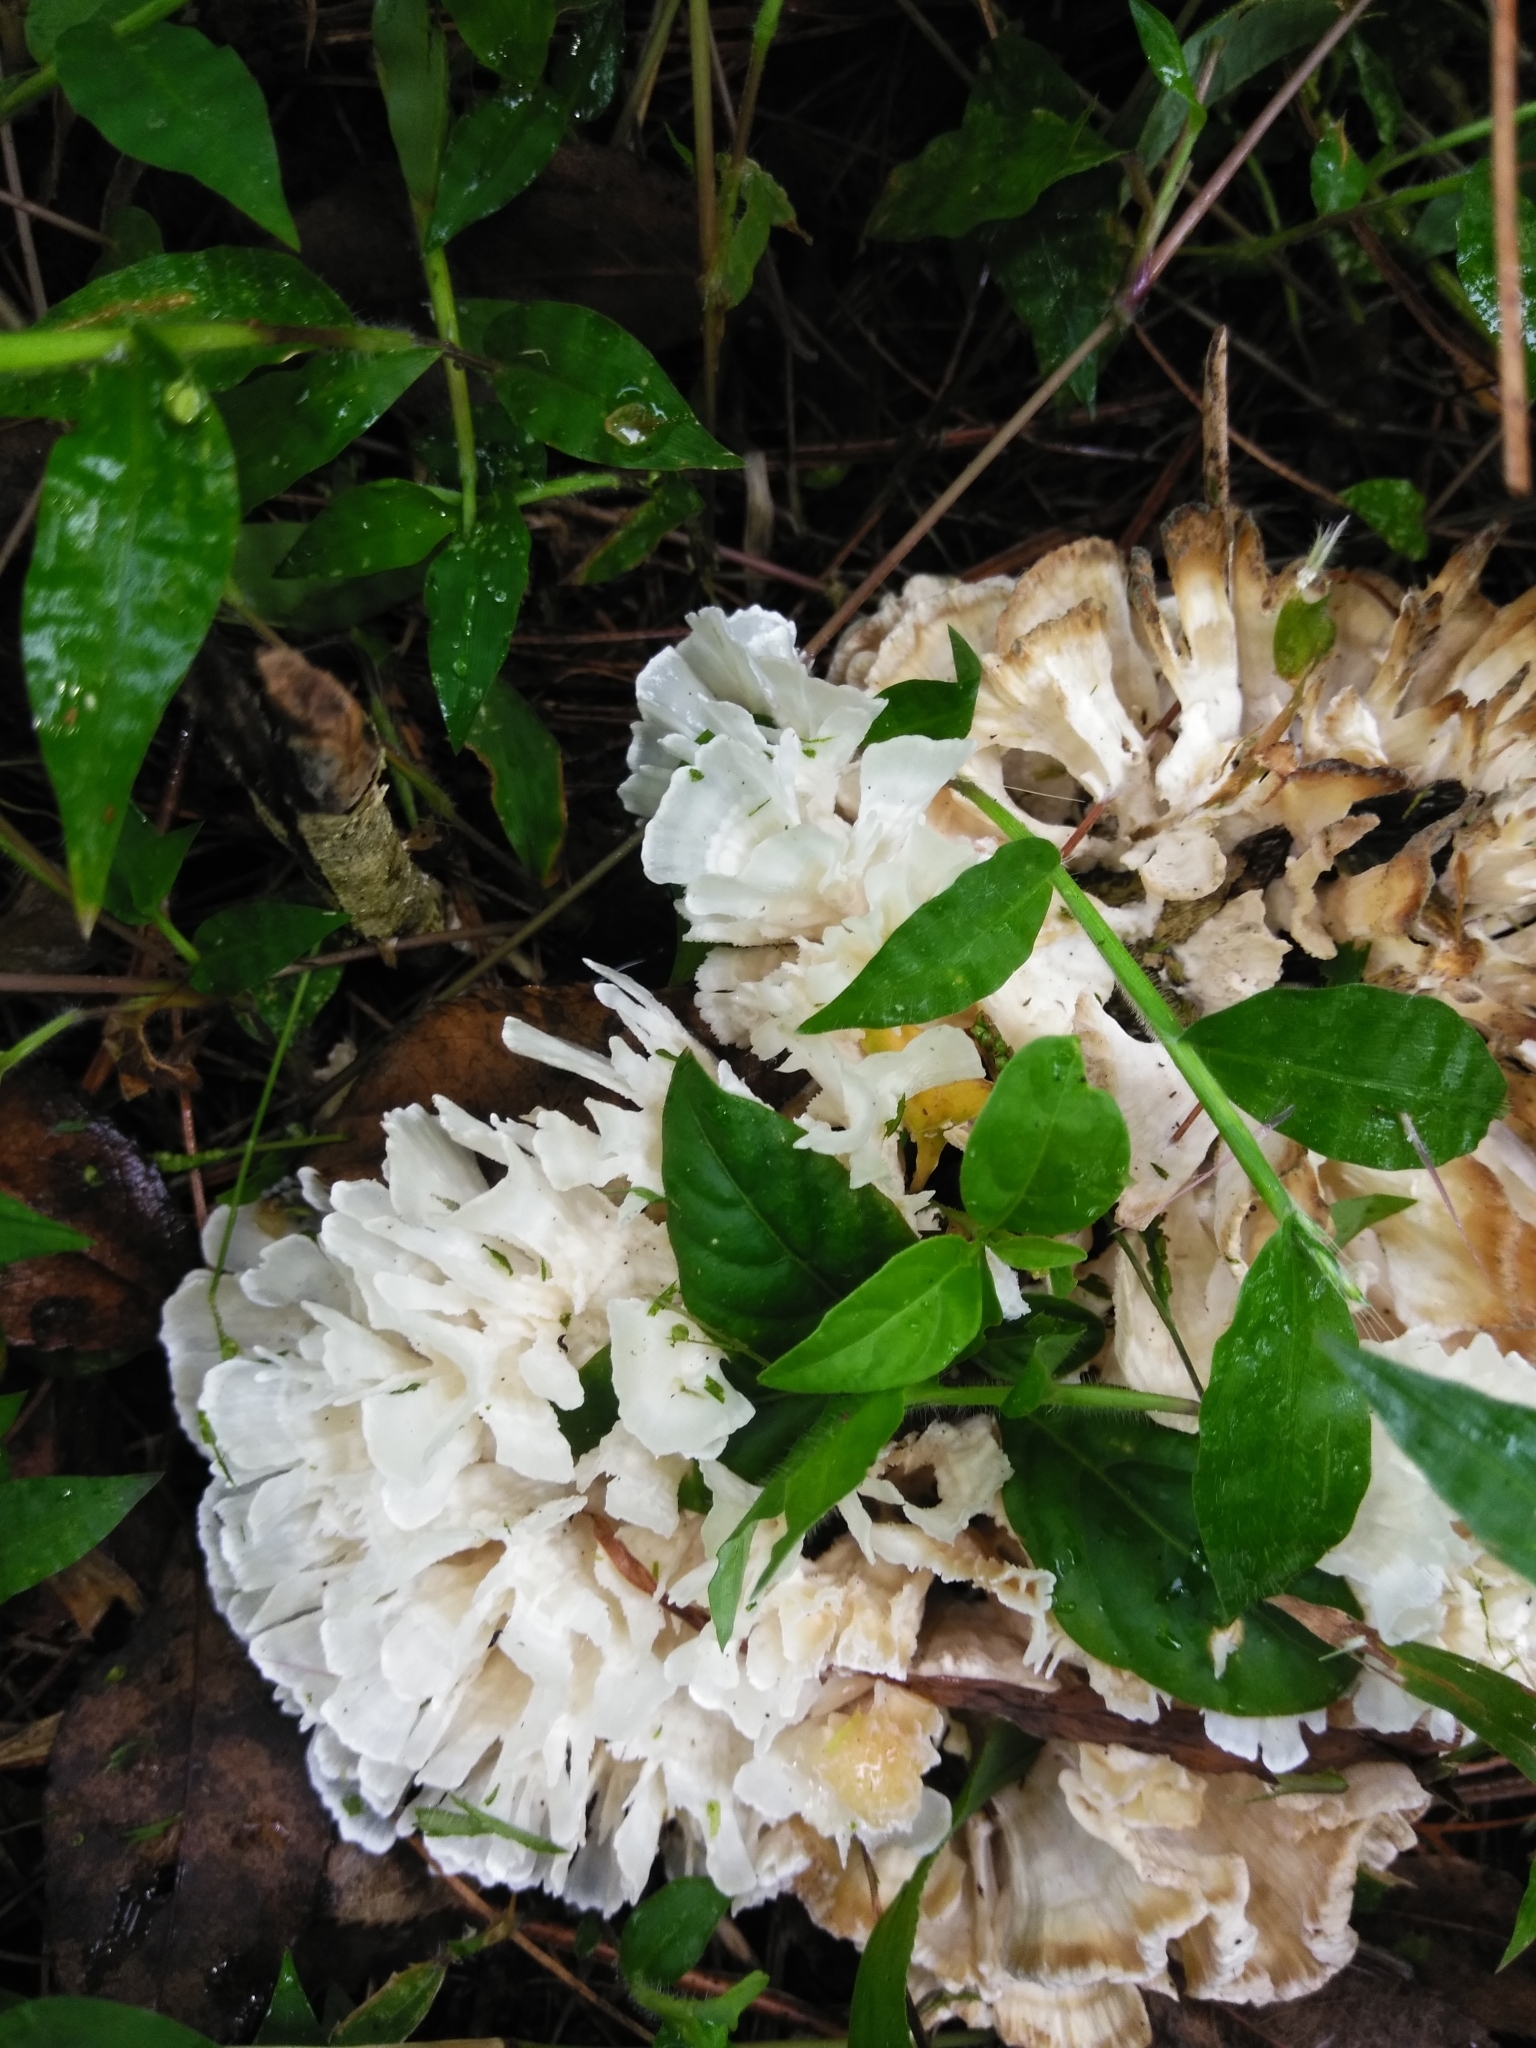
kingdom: Fungi
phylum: Basidiomycota
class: Agaricomycetes
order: Polyporales
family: Irpicaceae
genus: Irpex
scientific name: Irpex rosettiformis
